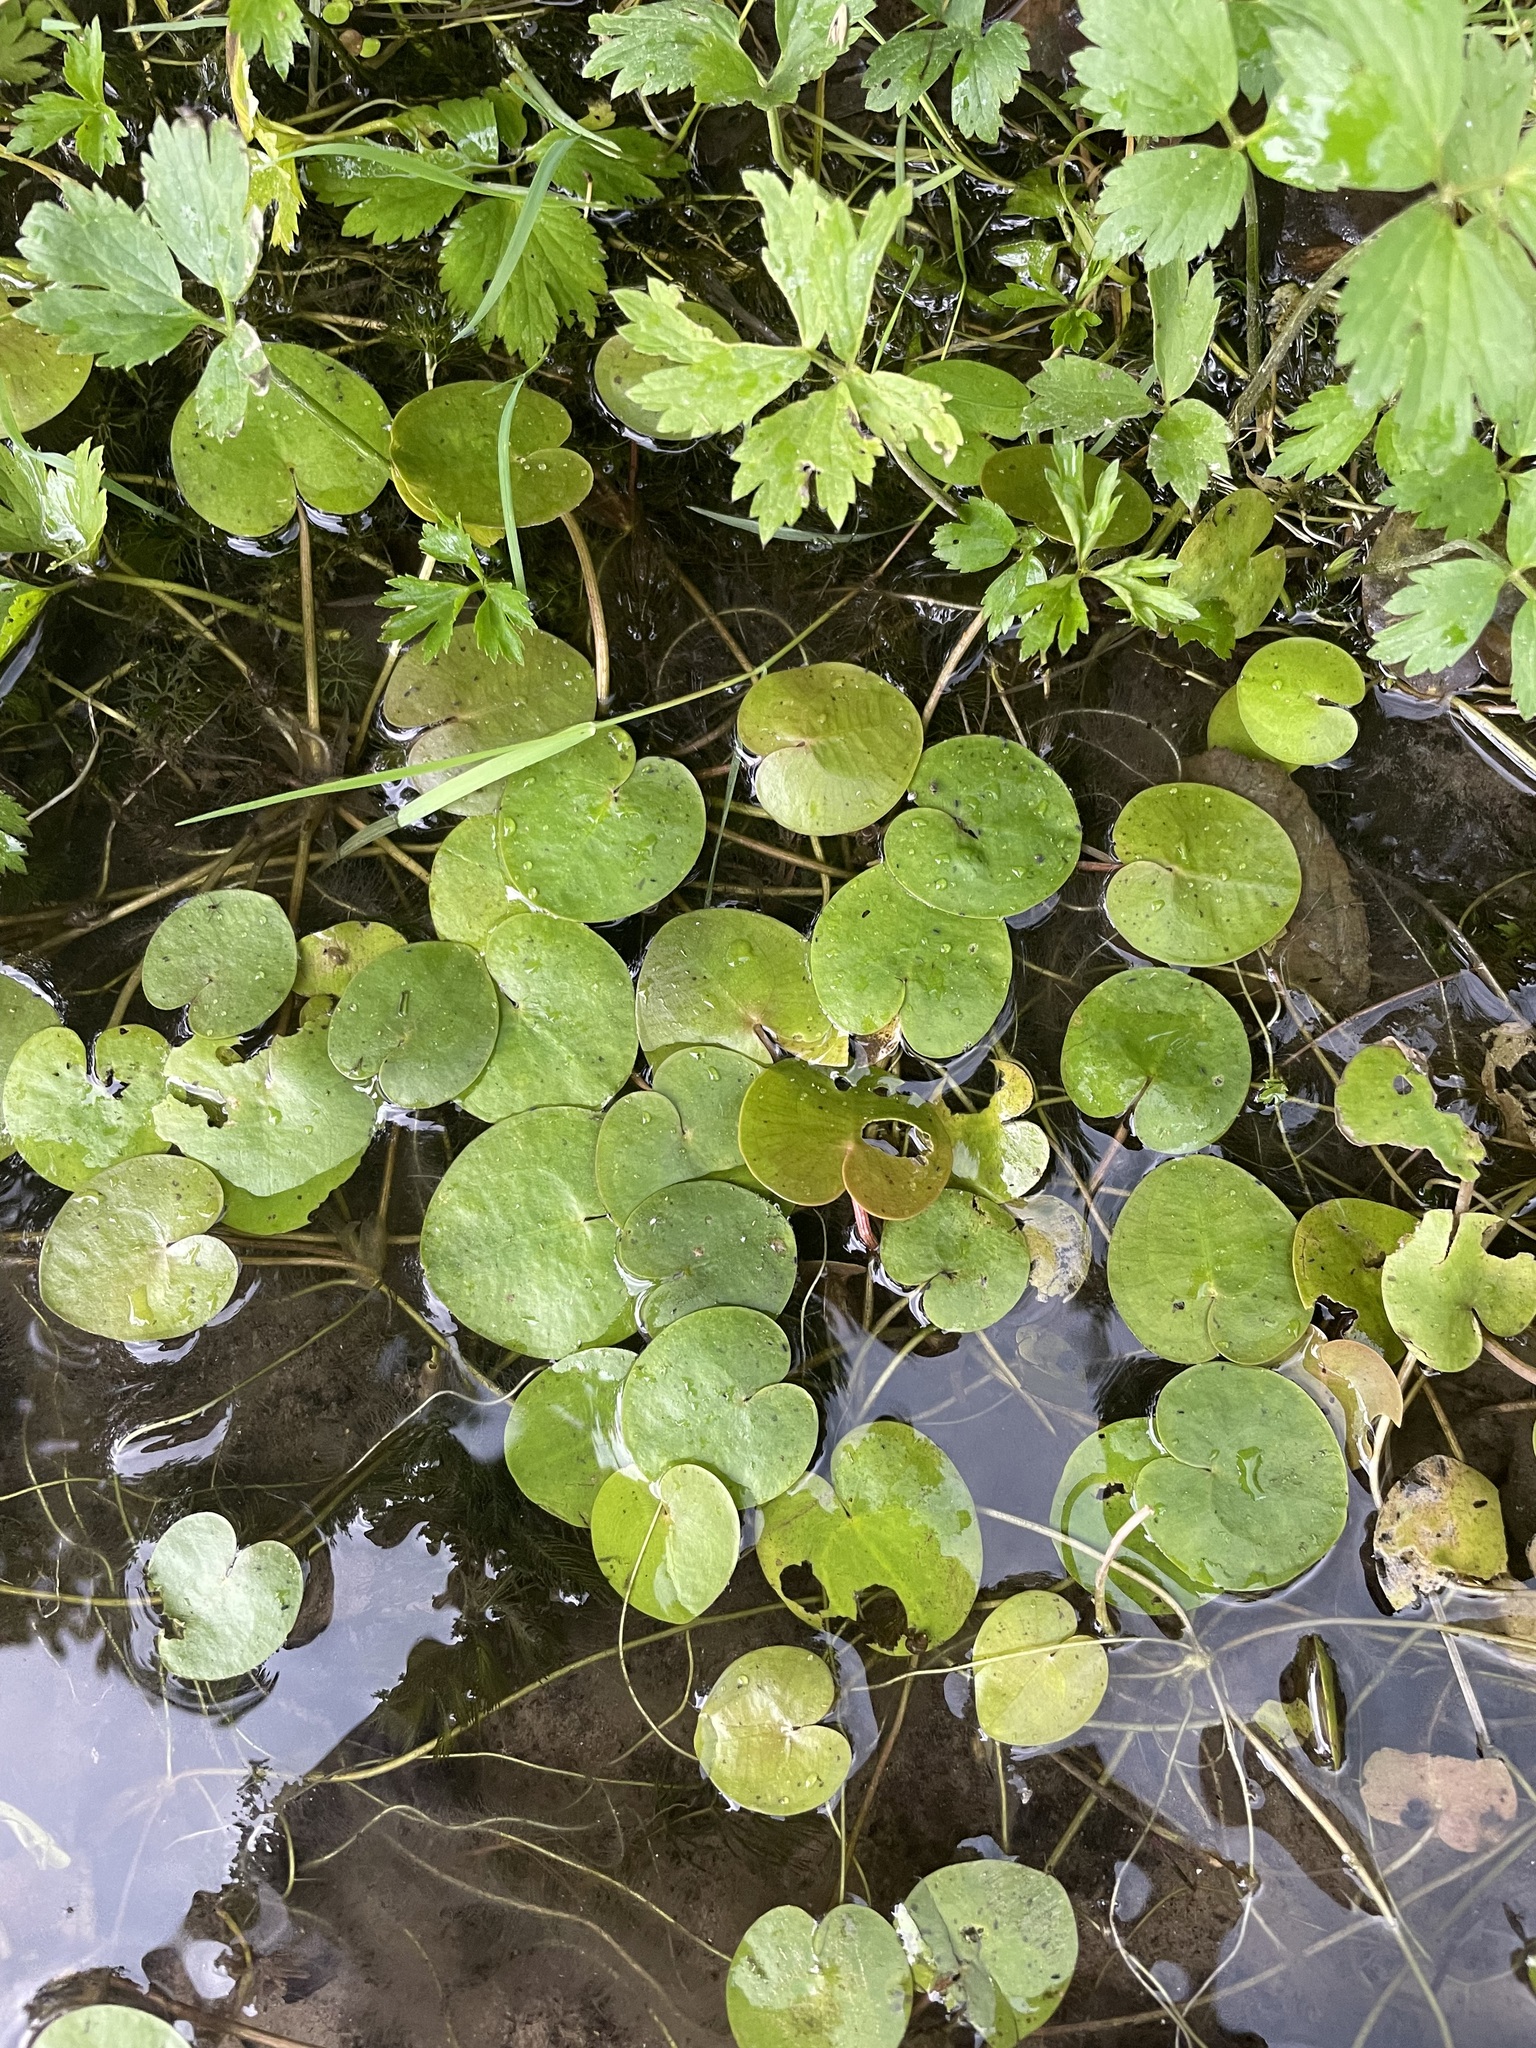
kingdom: Plantae
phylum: Tracheophyta
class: Liliopsida
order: Alismatales
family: Hydrocharitaceae
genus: Hydrocharis
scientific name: Hydrocharis morsus-ranae
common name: Frogbit
